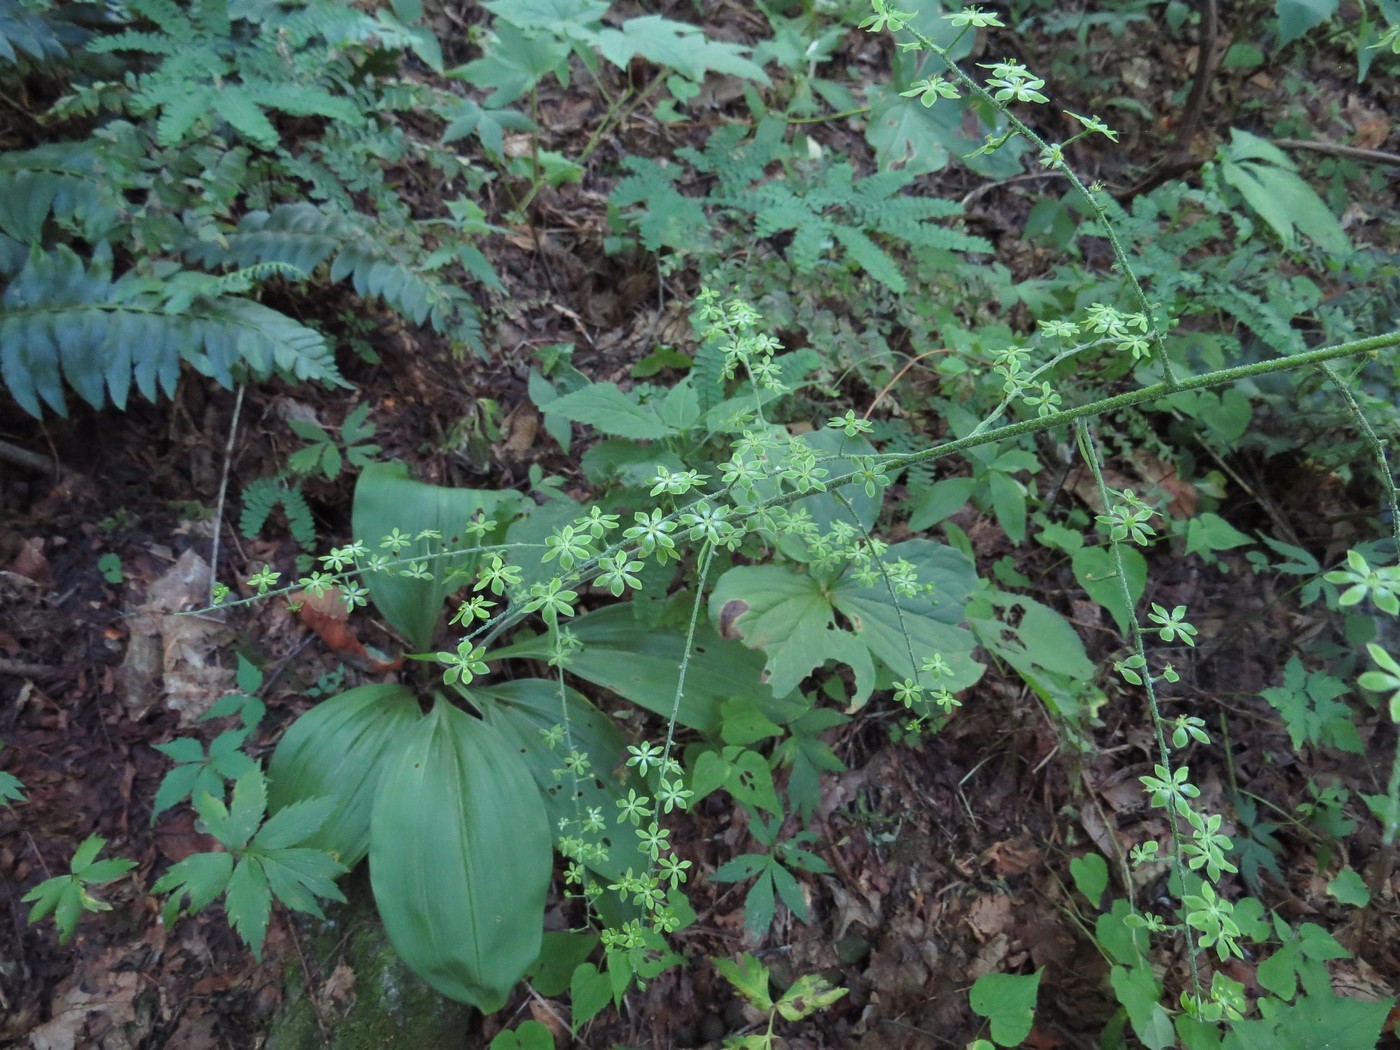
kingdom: Plantae
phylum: Tracheophyta
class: Liliopsida
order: Liliales
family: Melanthiaceae
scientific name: Melanthiaceae
